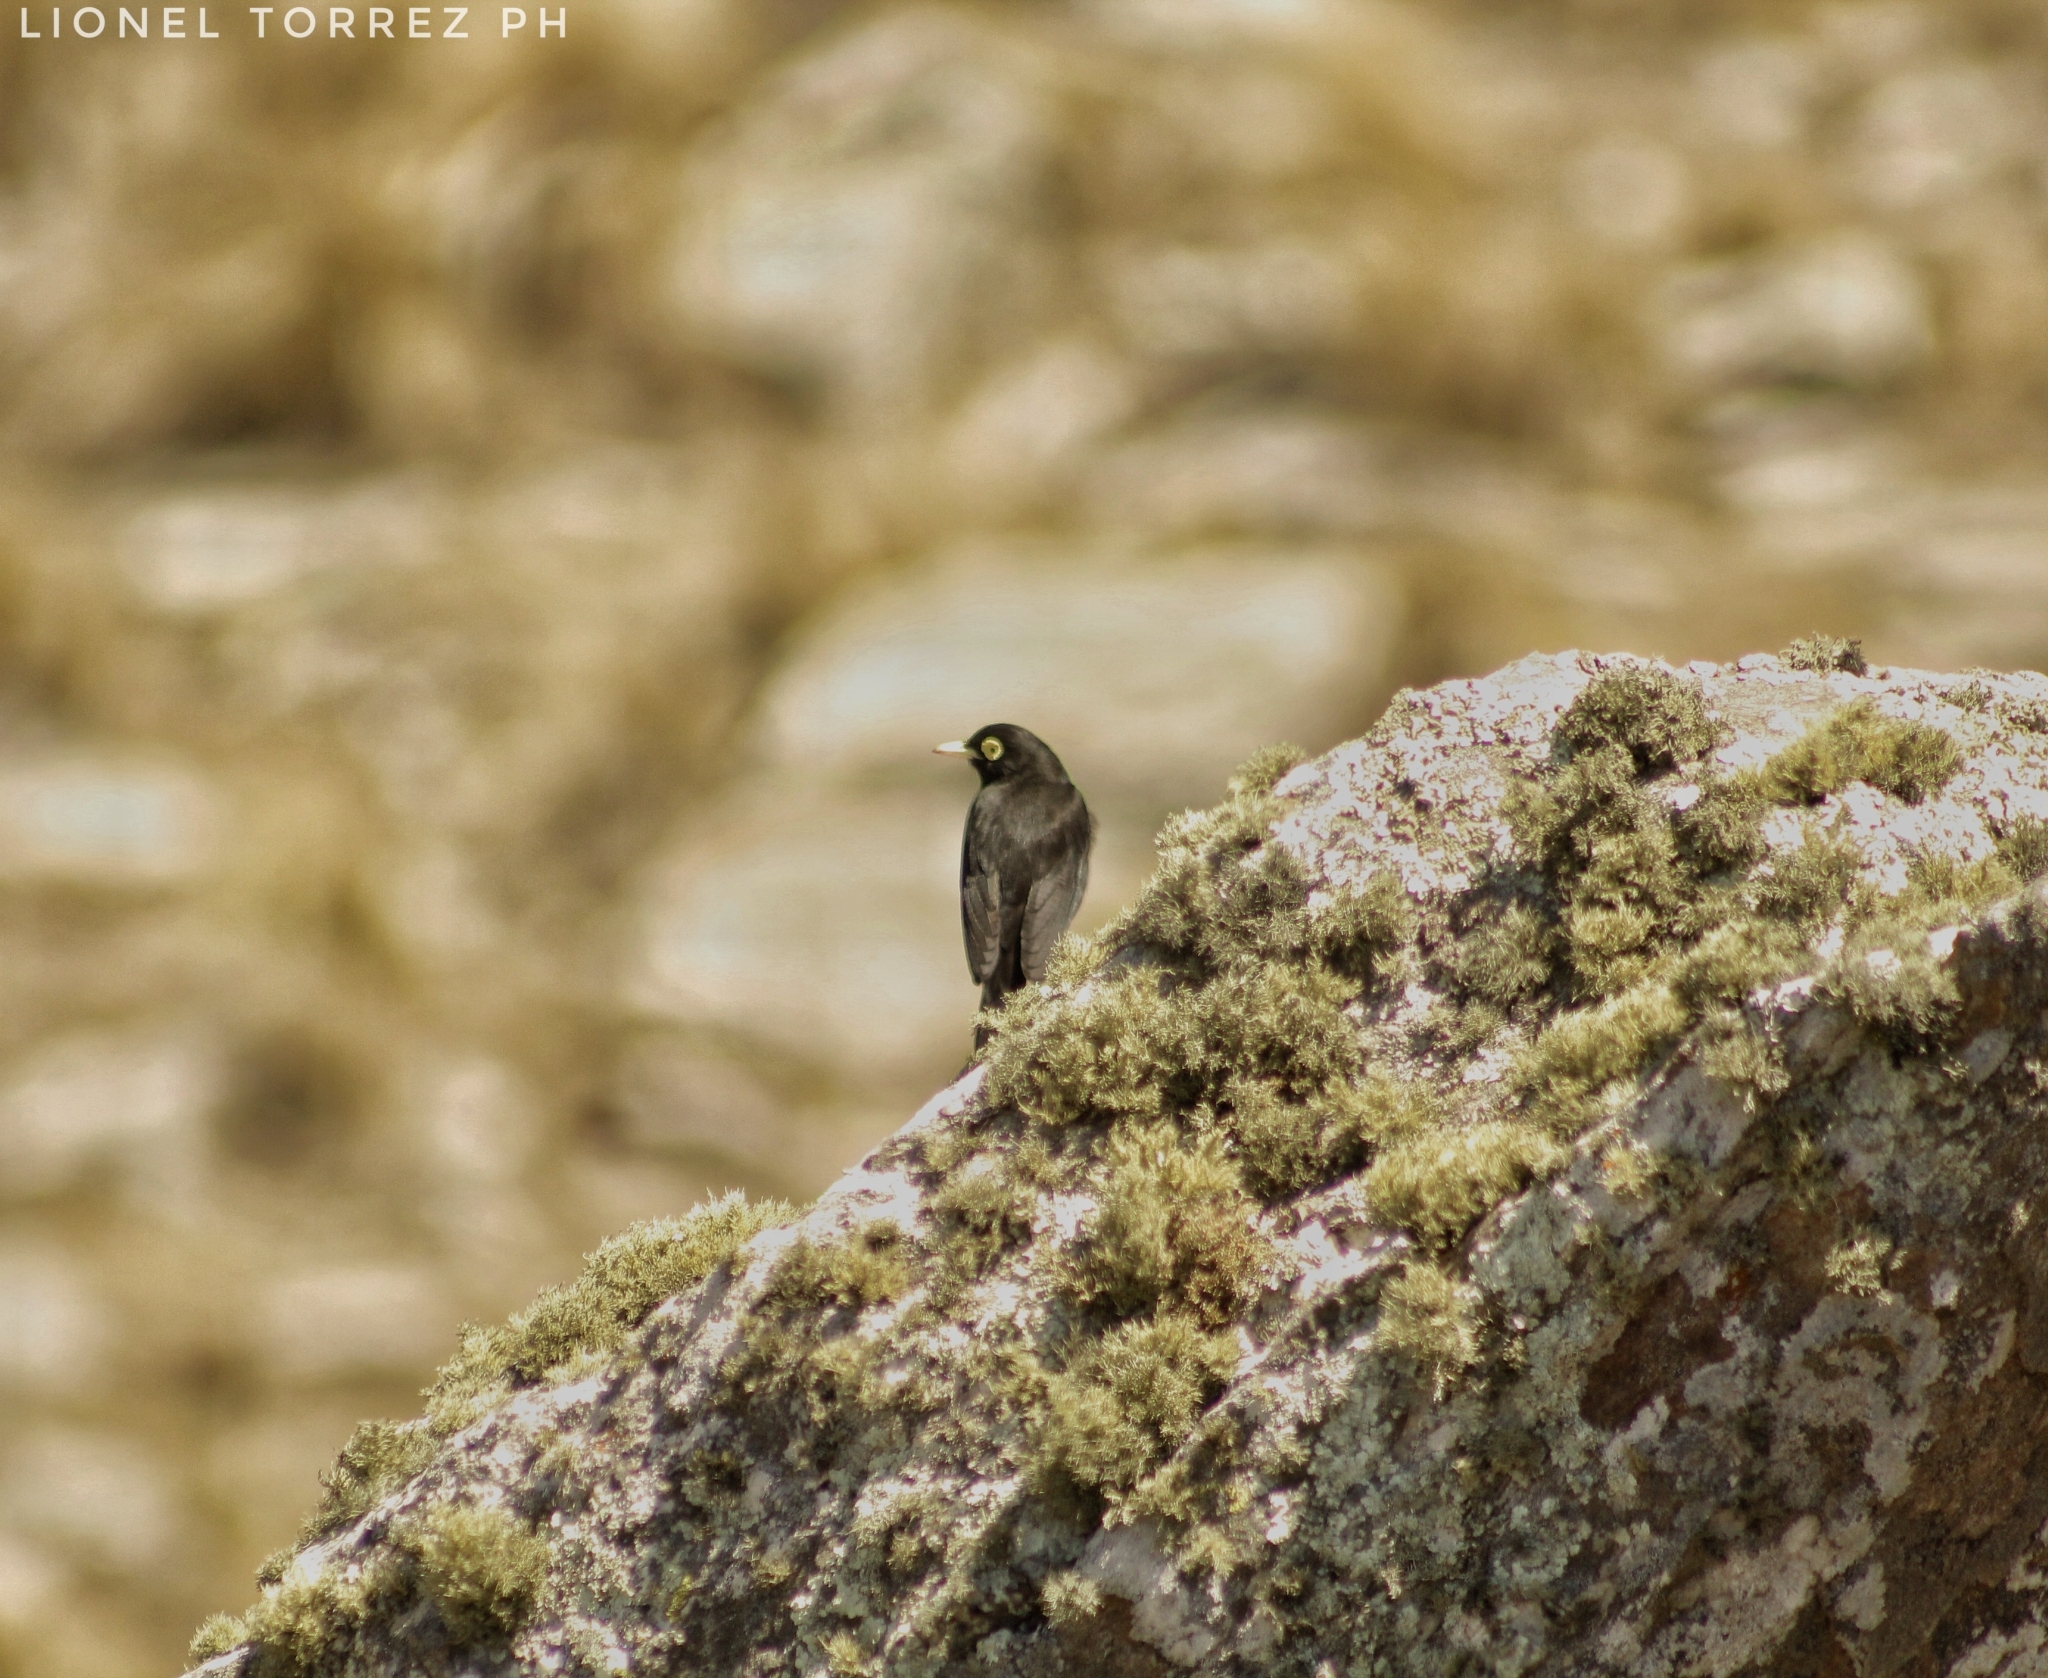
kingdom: Animalia
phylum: Chordata
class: Aves
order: Passeriformes
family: Tyrannidae
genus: Hymenops
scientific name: Hymenops perspicillatus
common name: Spectacled tyrant
